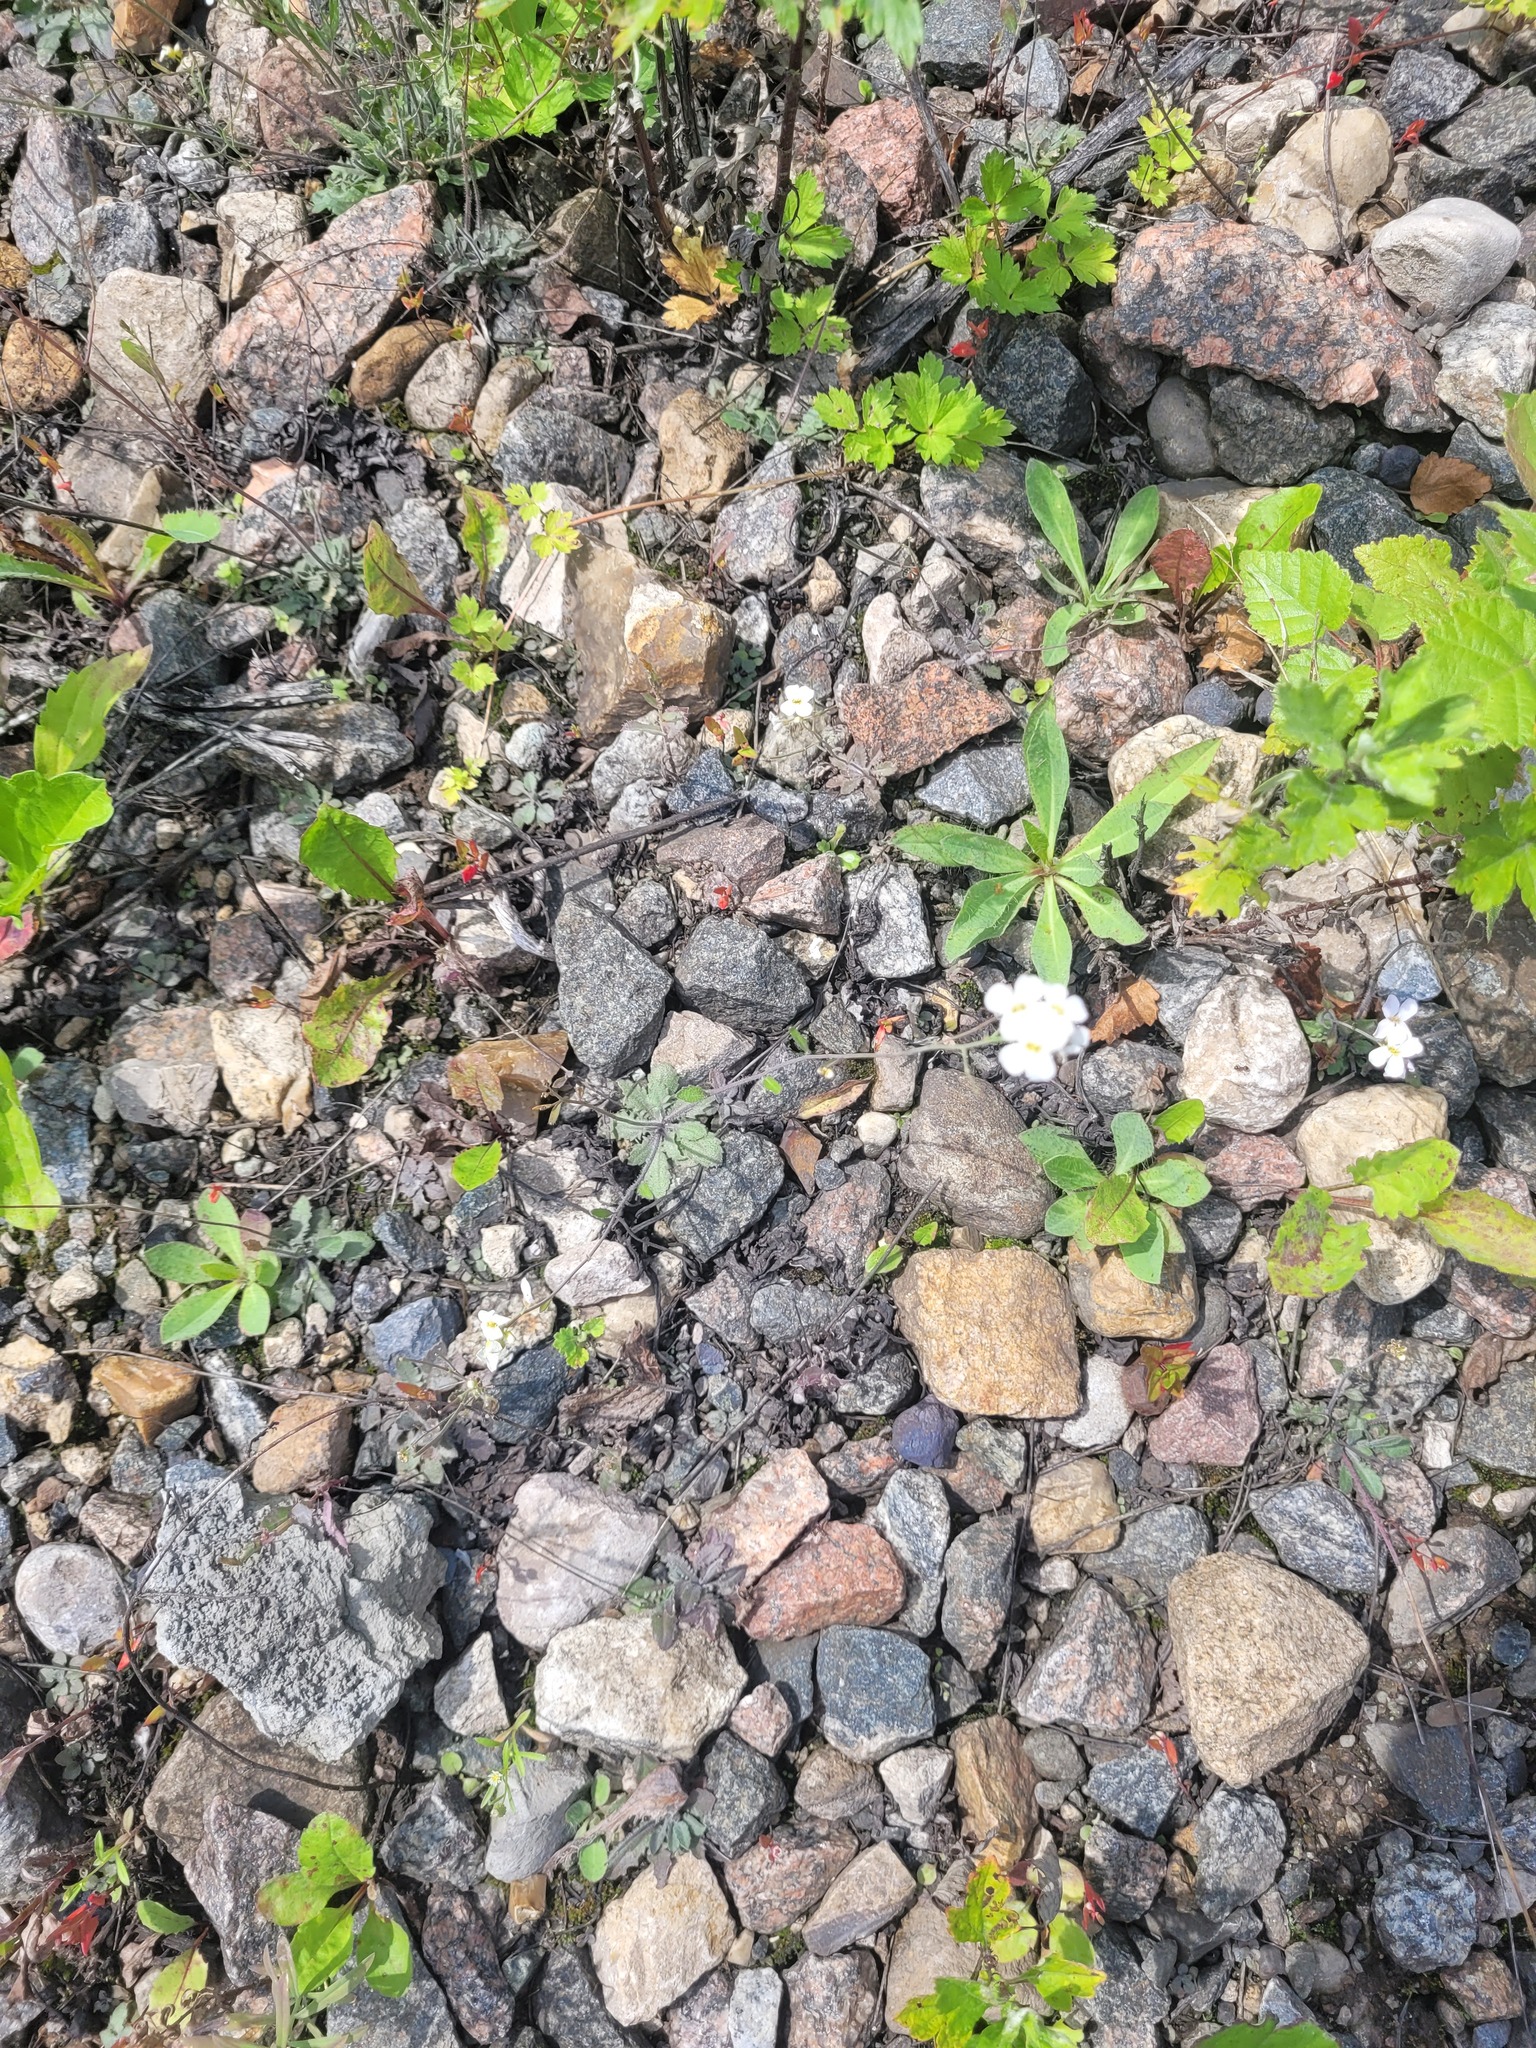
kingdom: Plantae
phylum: Tracheophyta
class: Magnoliopsida
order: Brassicales
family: Brassicaceae
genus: Arabidopsis
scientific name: Arabidopsis arenosa
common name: Sand rock-cress
